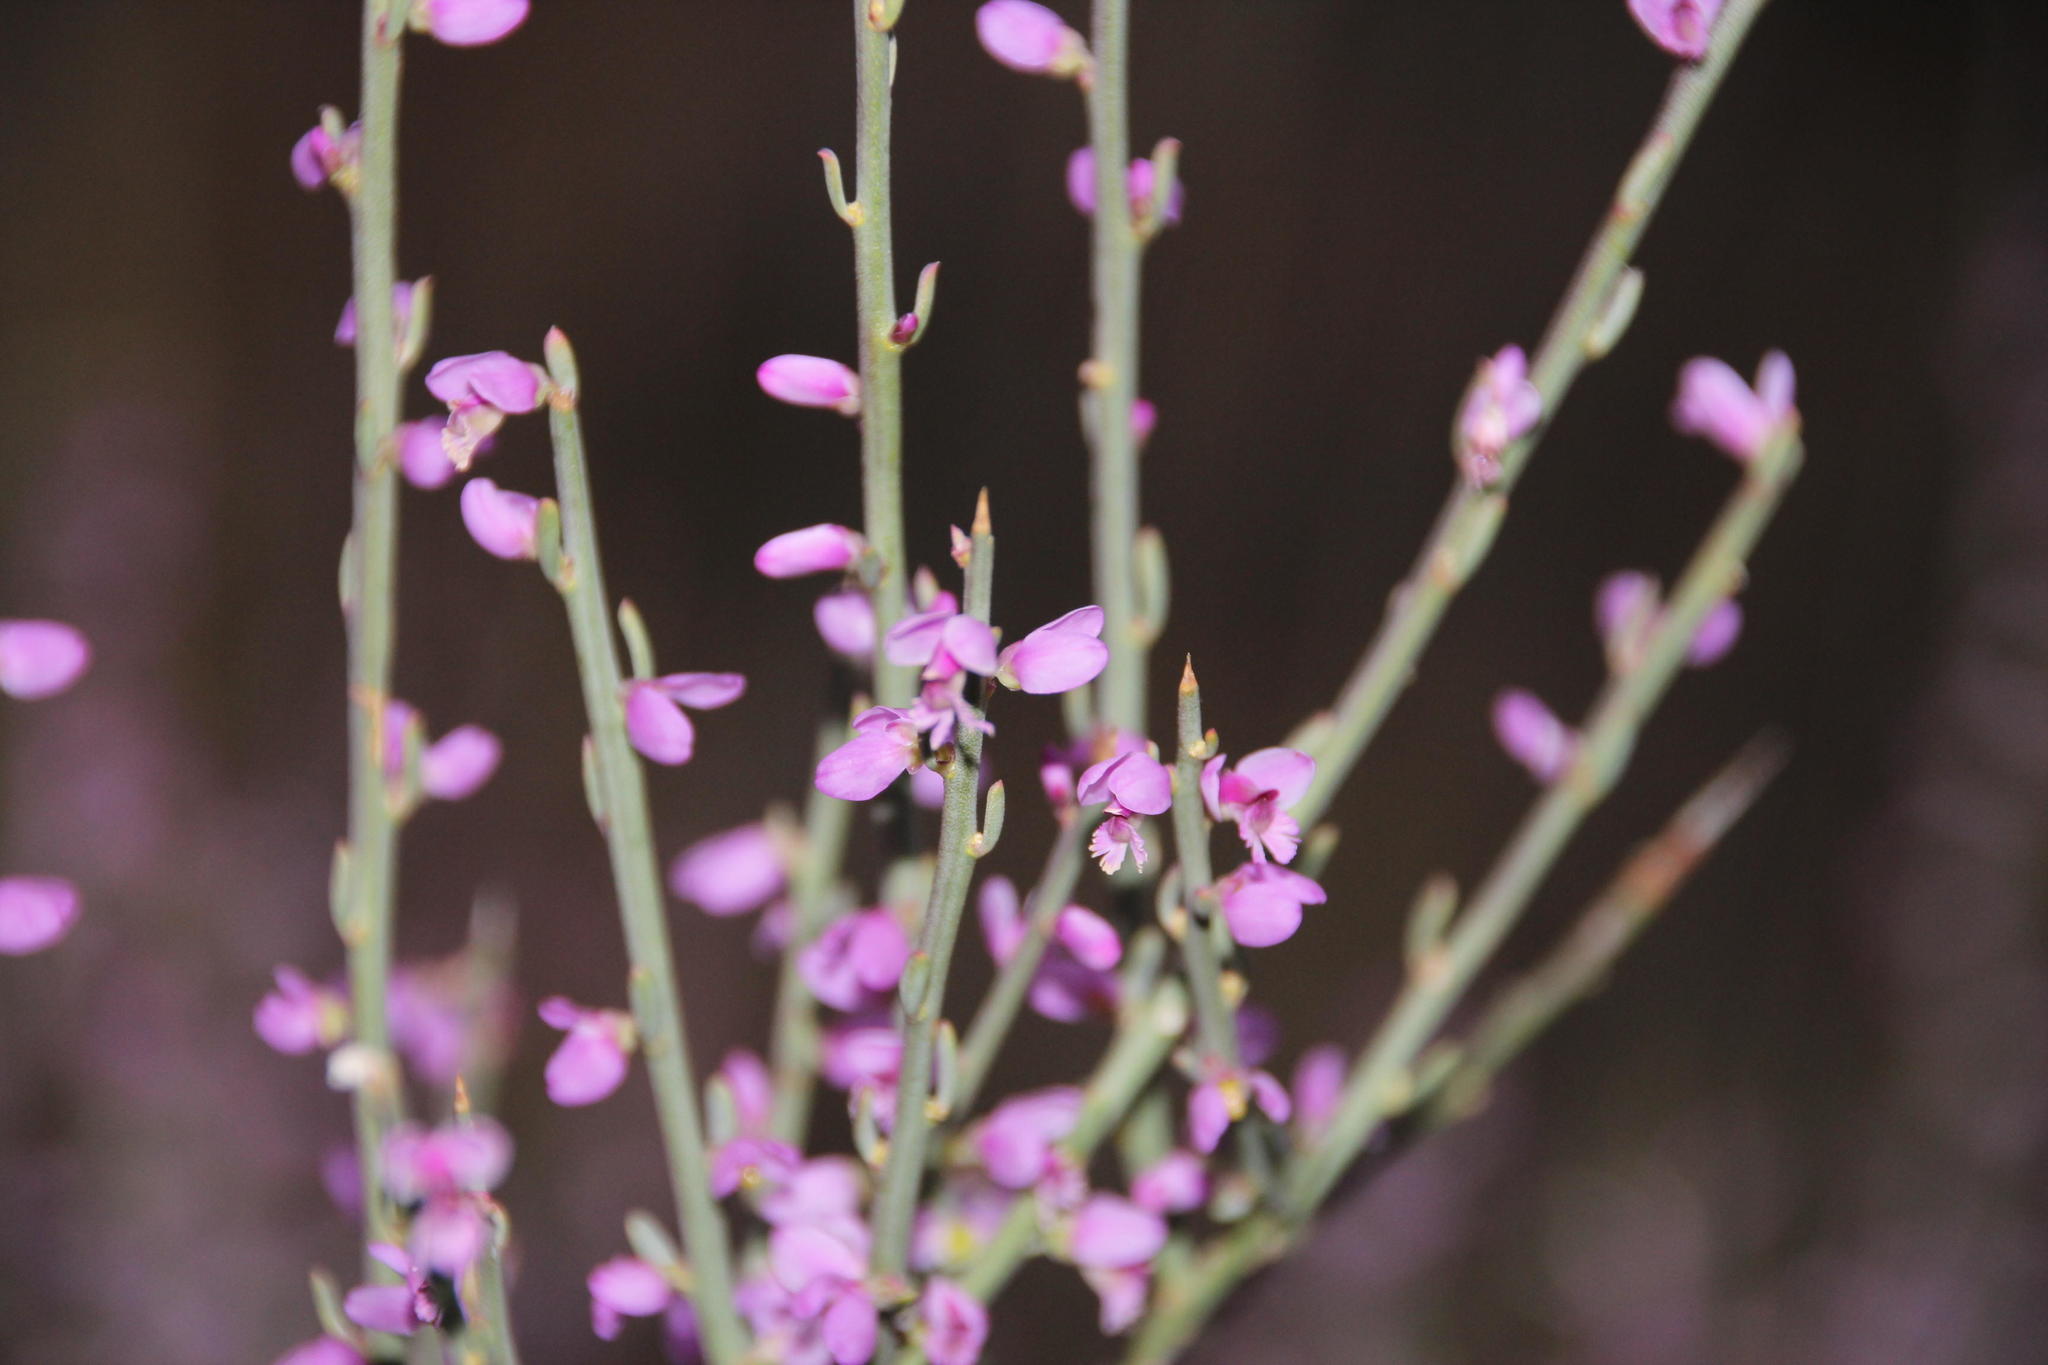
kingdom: Plantae
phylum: Tracheophyta
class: Magnoliopsida
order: Fabales
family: Polygalaceae
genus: Muraltia
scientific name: Muraltia spinosa
